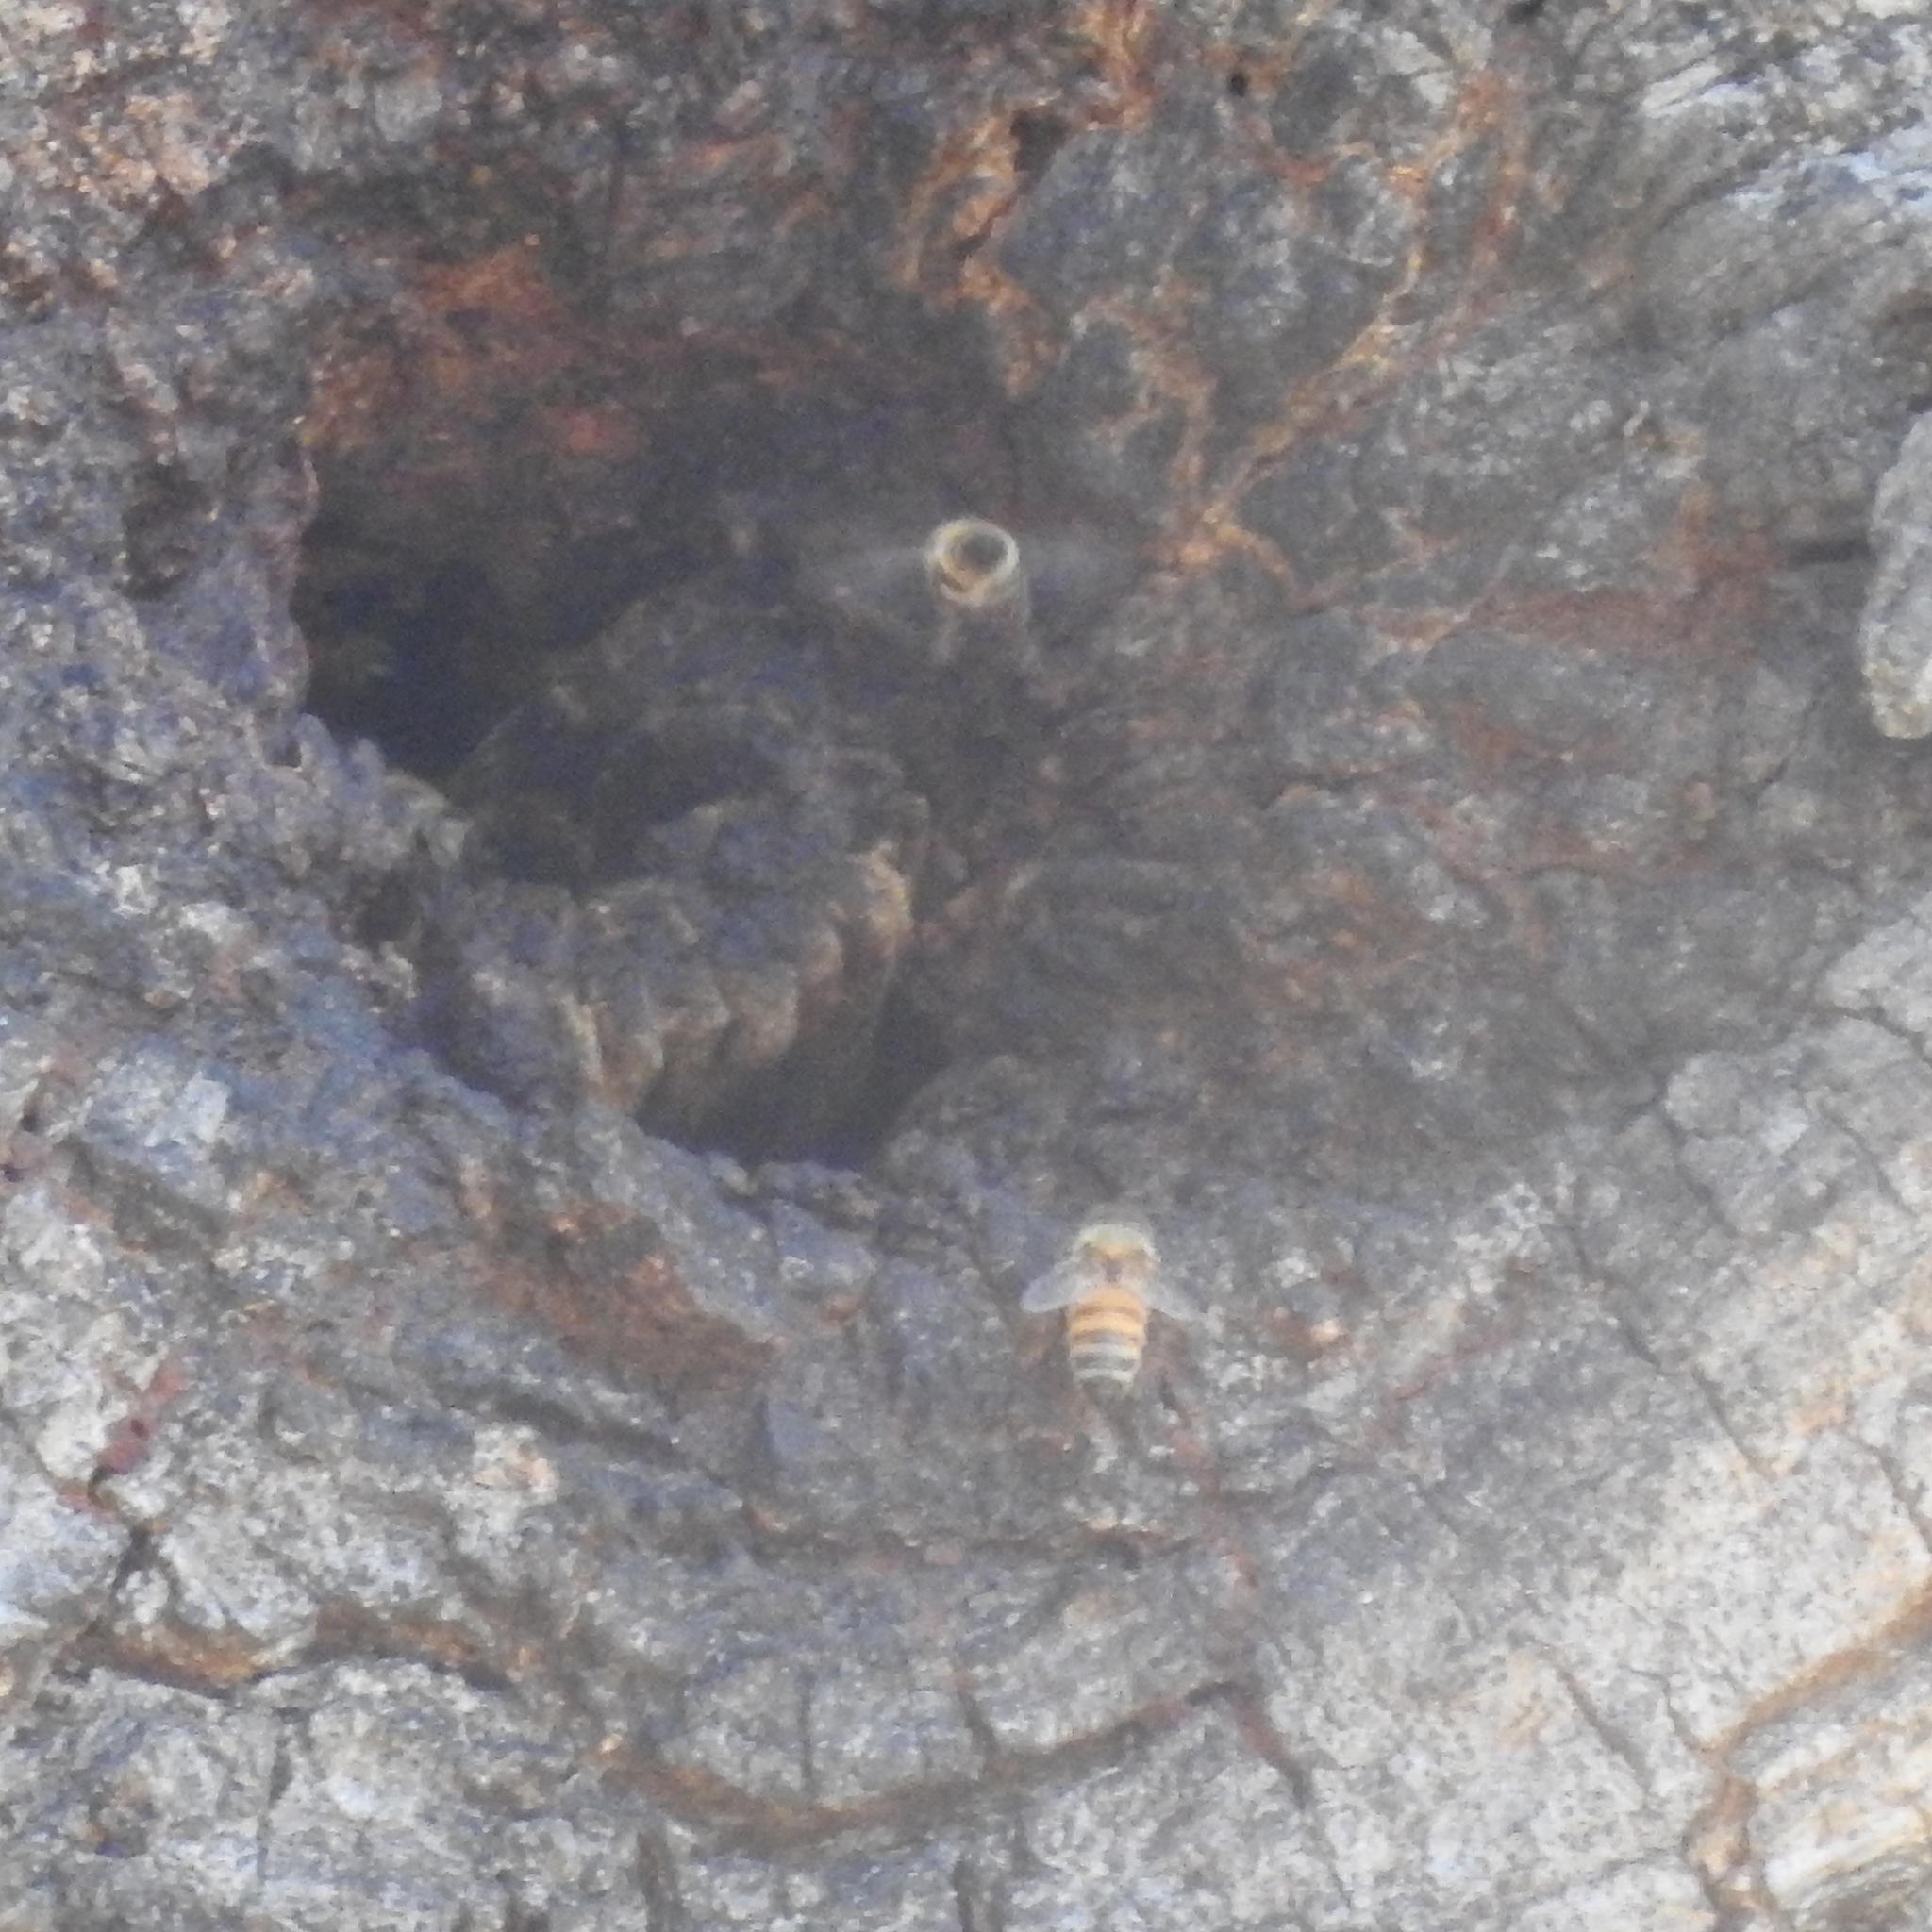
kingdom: Animalia
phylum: Arthropoda
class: Insecta
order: Hymenoptera
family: Apidae
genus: Apis
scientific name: Apis mellifera
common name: Honey bee
